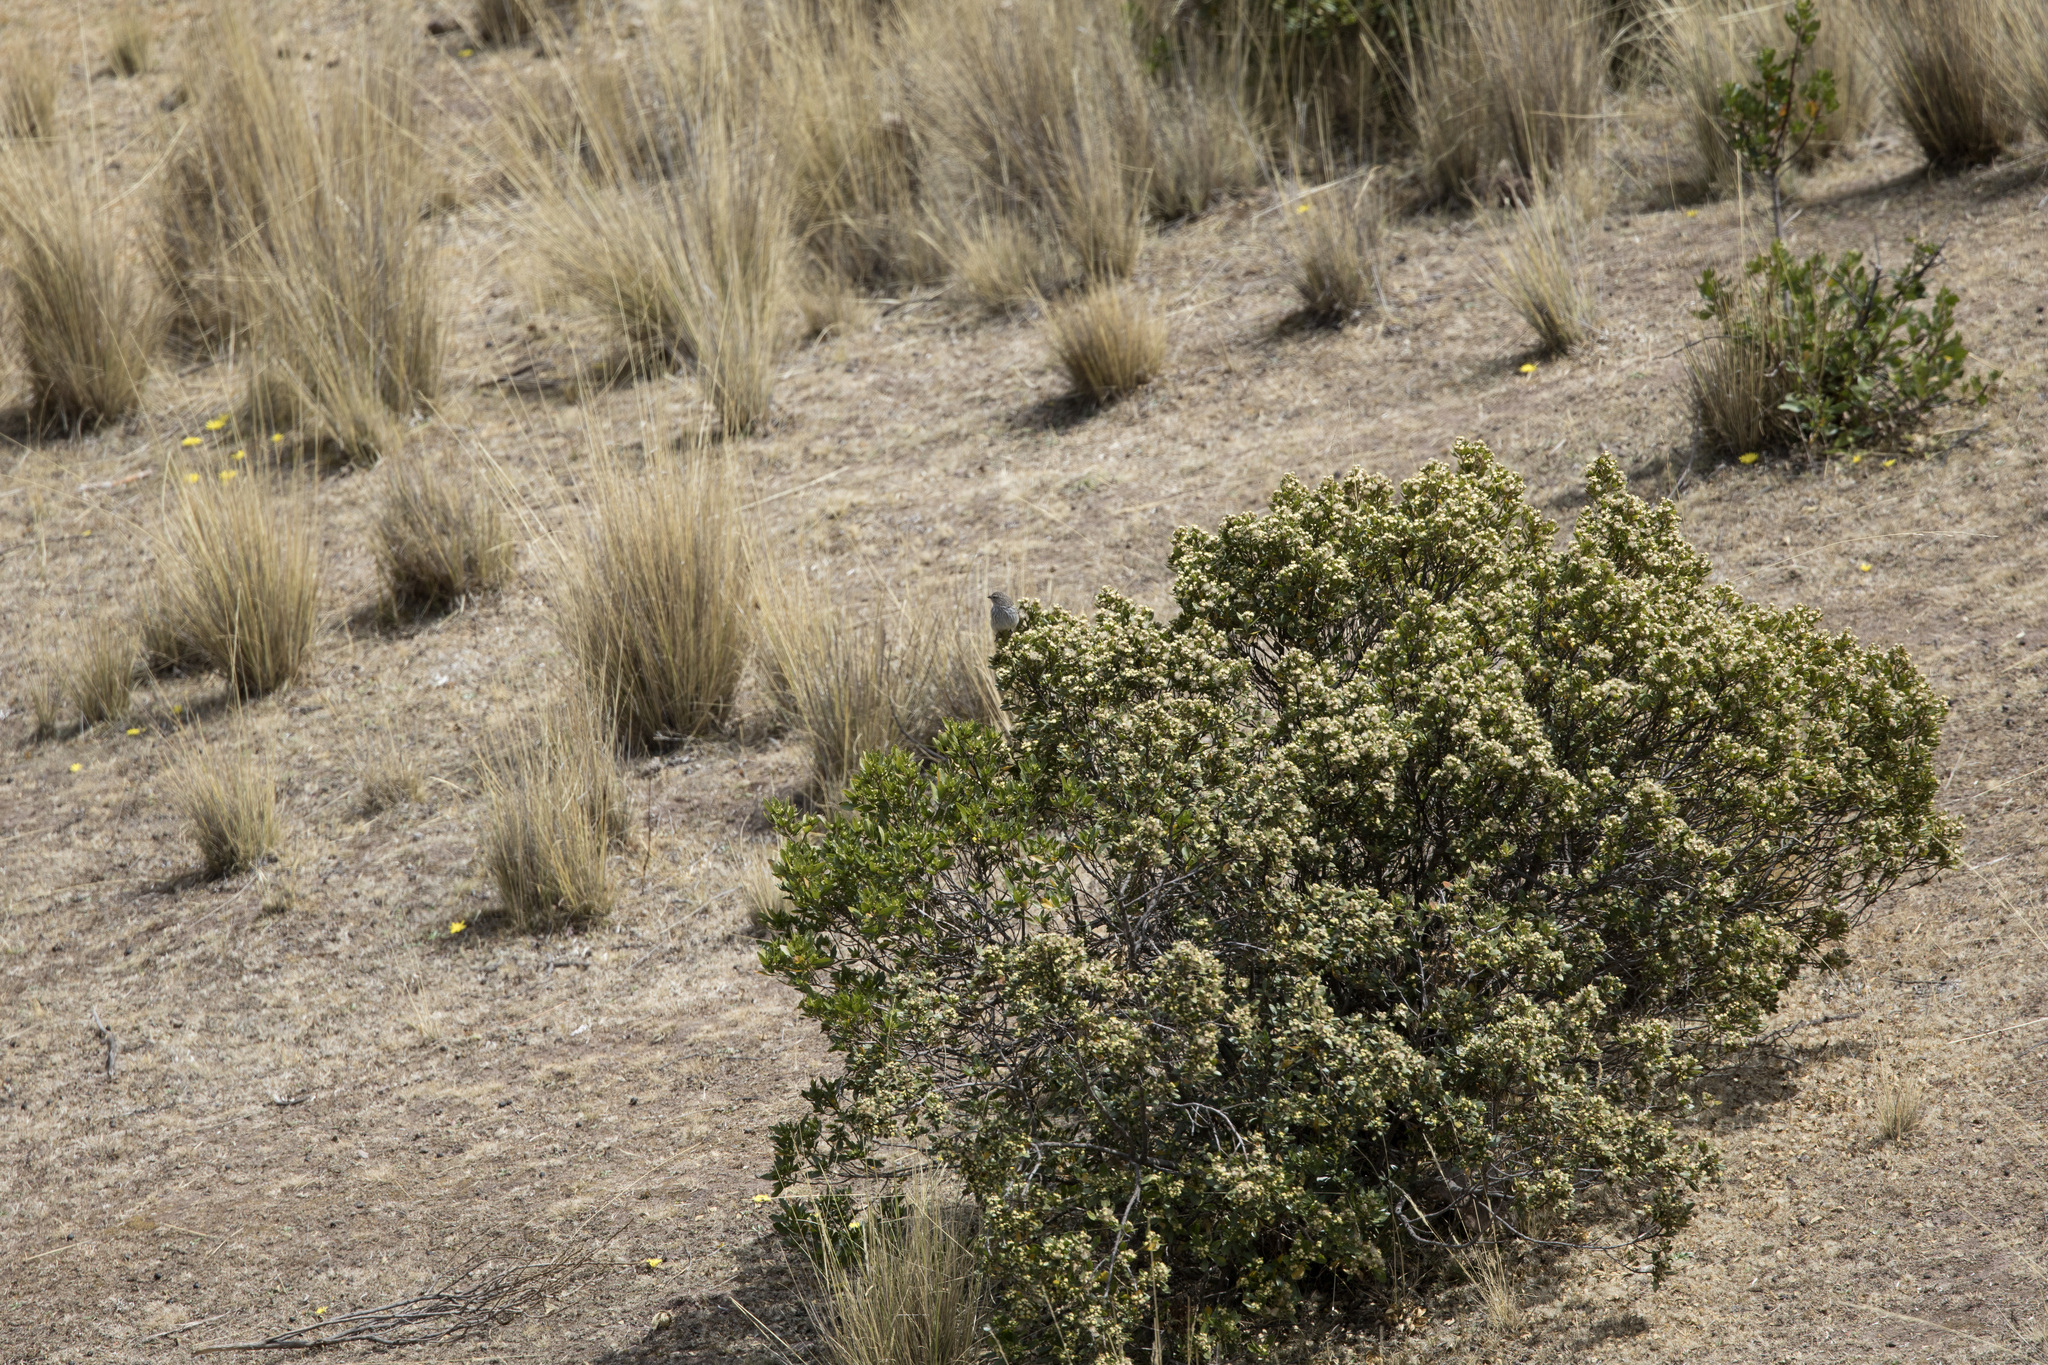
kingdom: Animalia
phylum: Chordata
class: Aves
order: Passeriformes
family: Thraupidae
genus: Geospizopsis
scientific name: Geospizopsis plebejus
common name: Ash-breasted sierra-finch
